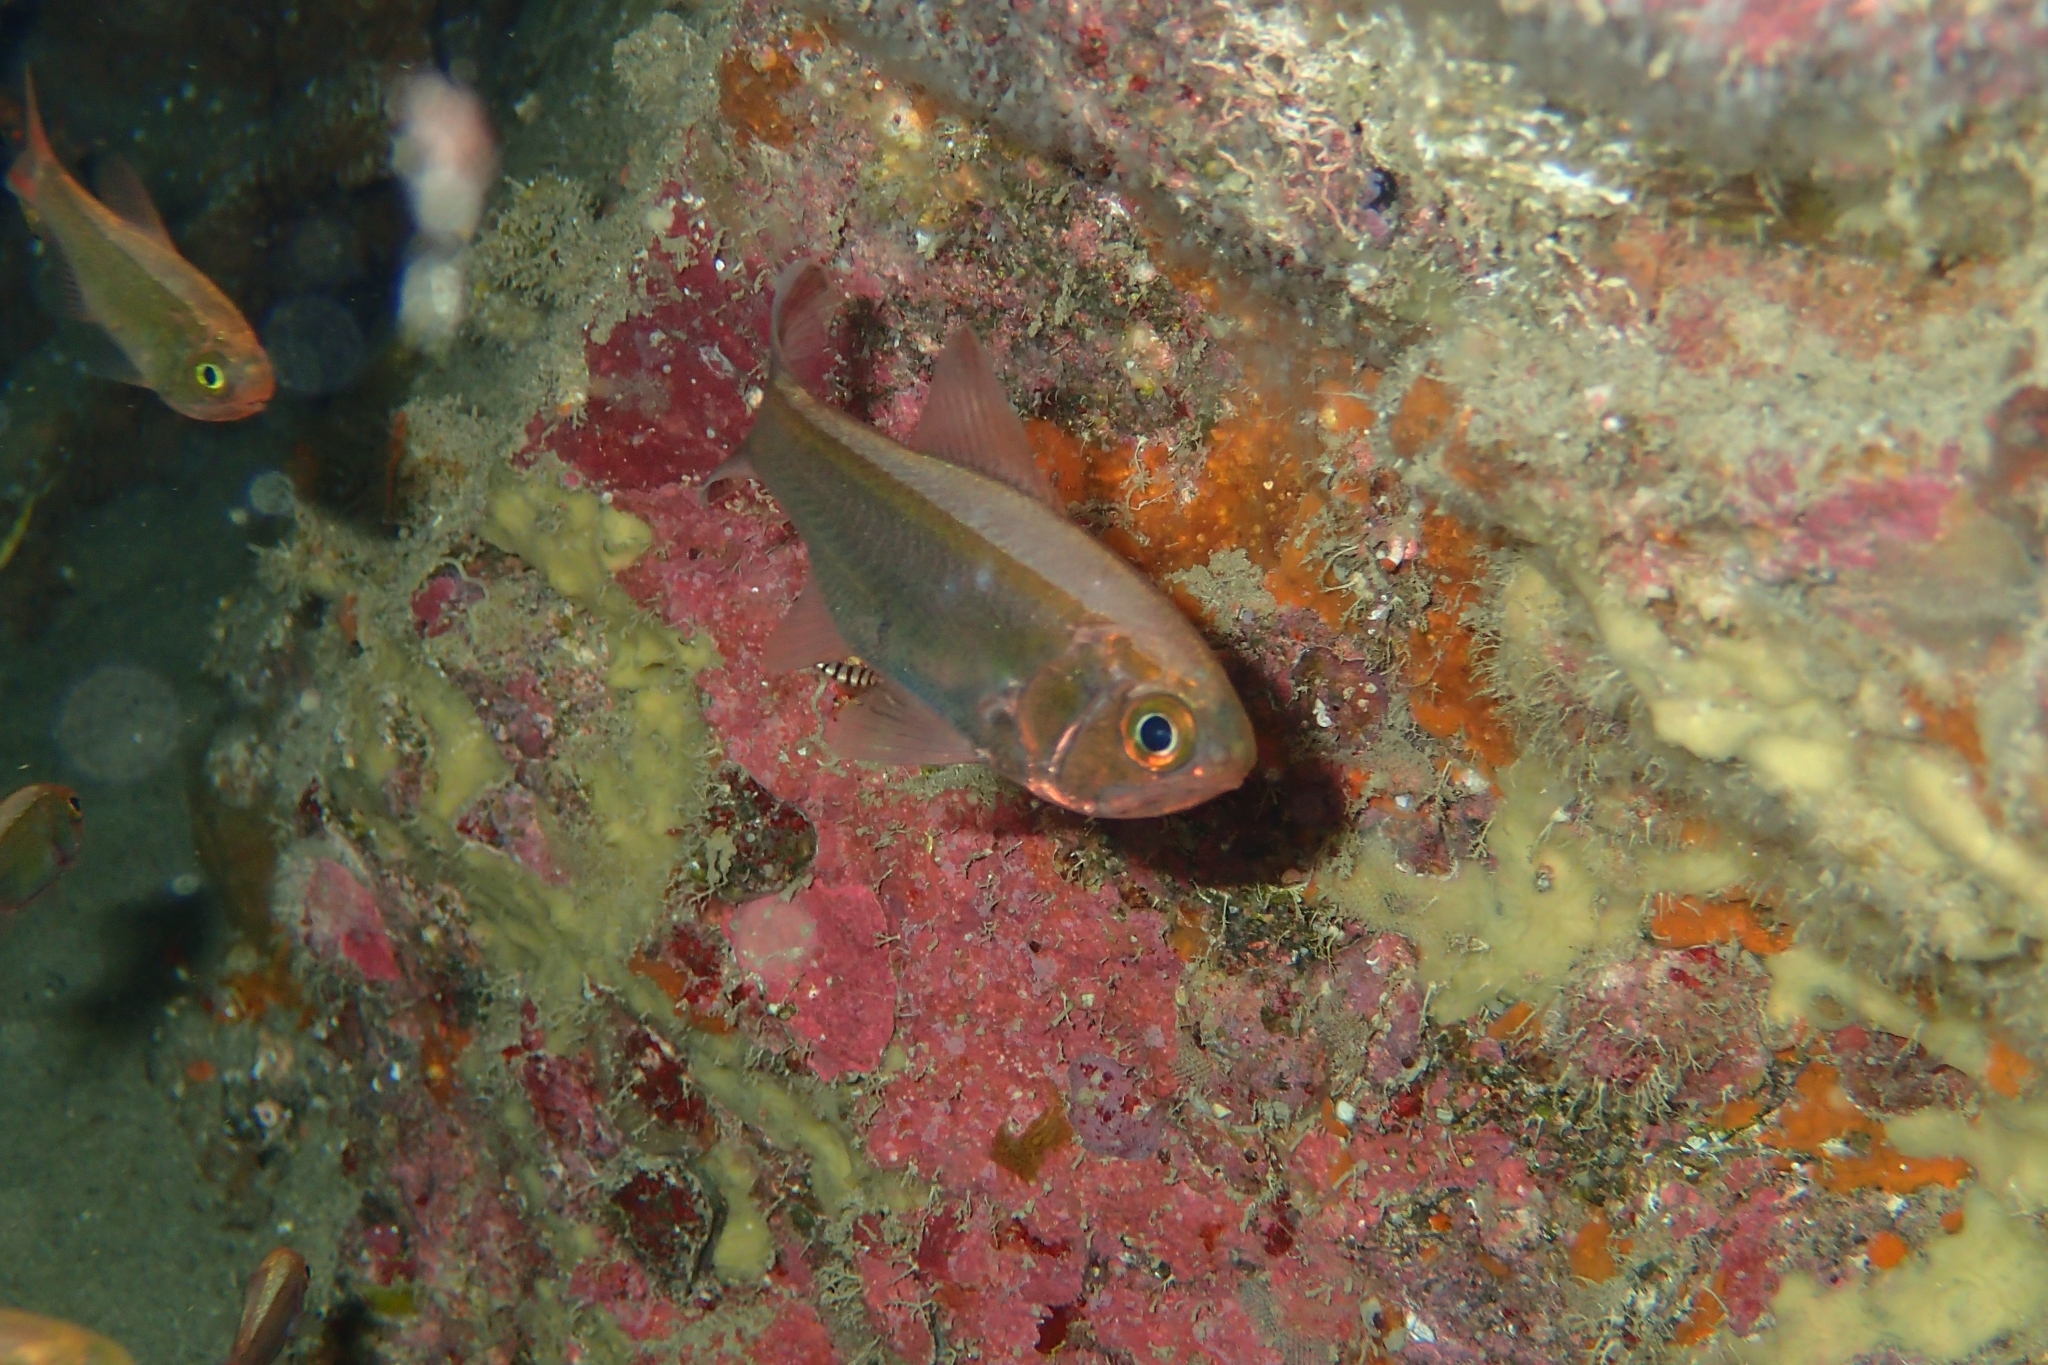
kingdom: Animalia
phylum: Chordata
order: Beryciformes
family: Trachichthyidae
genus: Optivus
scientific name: Optivus elongatus
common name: Slender roughy
